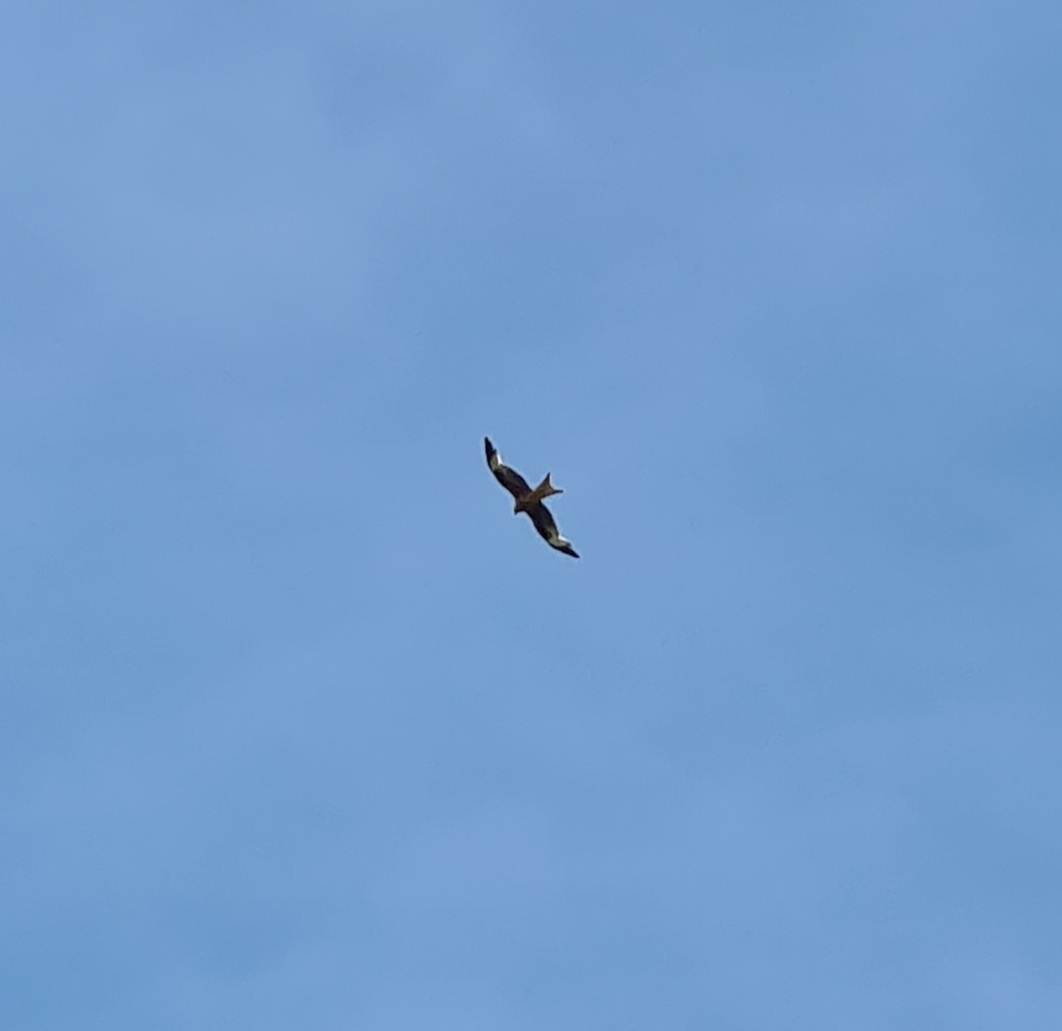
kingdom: Animalia
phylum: Chordata
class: Aves
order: Accipitriformes
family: Accipitridae
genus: Milvus
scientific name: Milvus milvus
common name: Red kite
